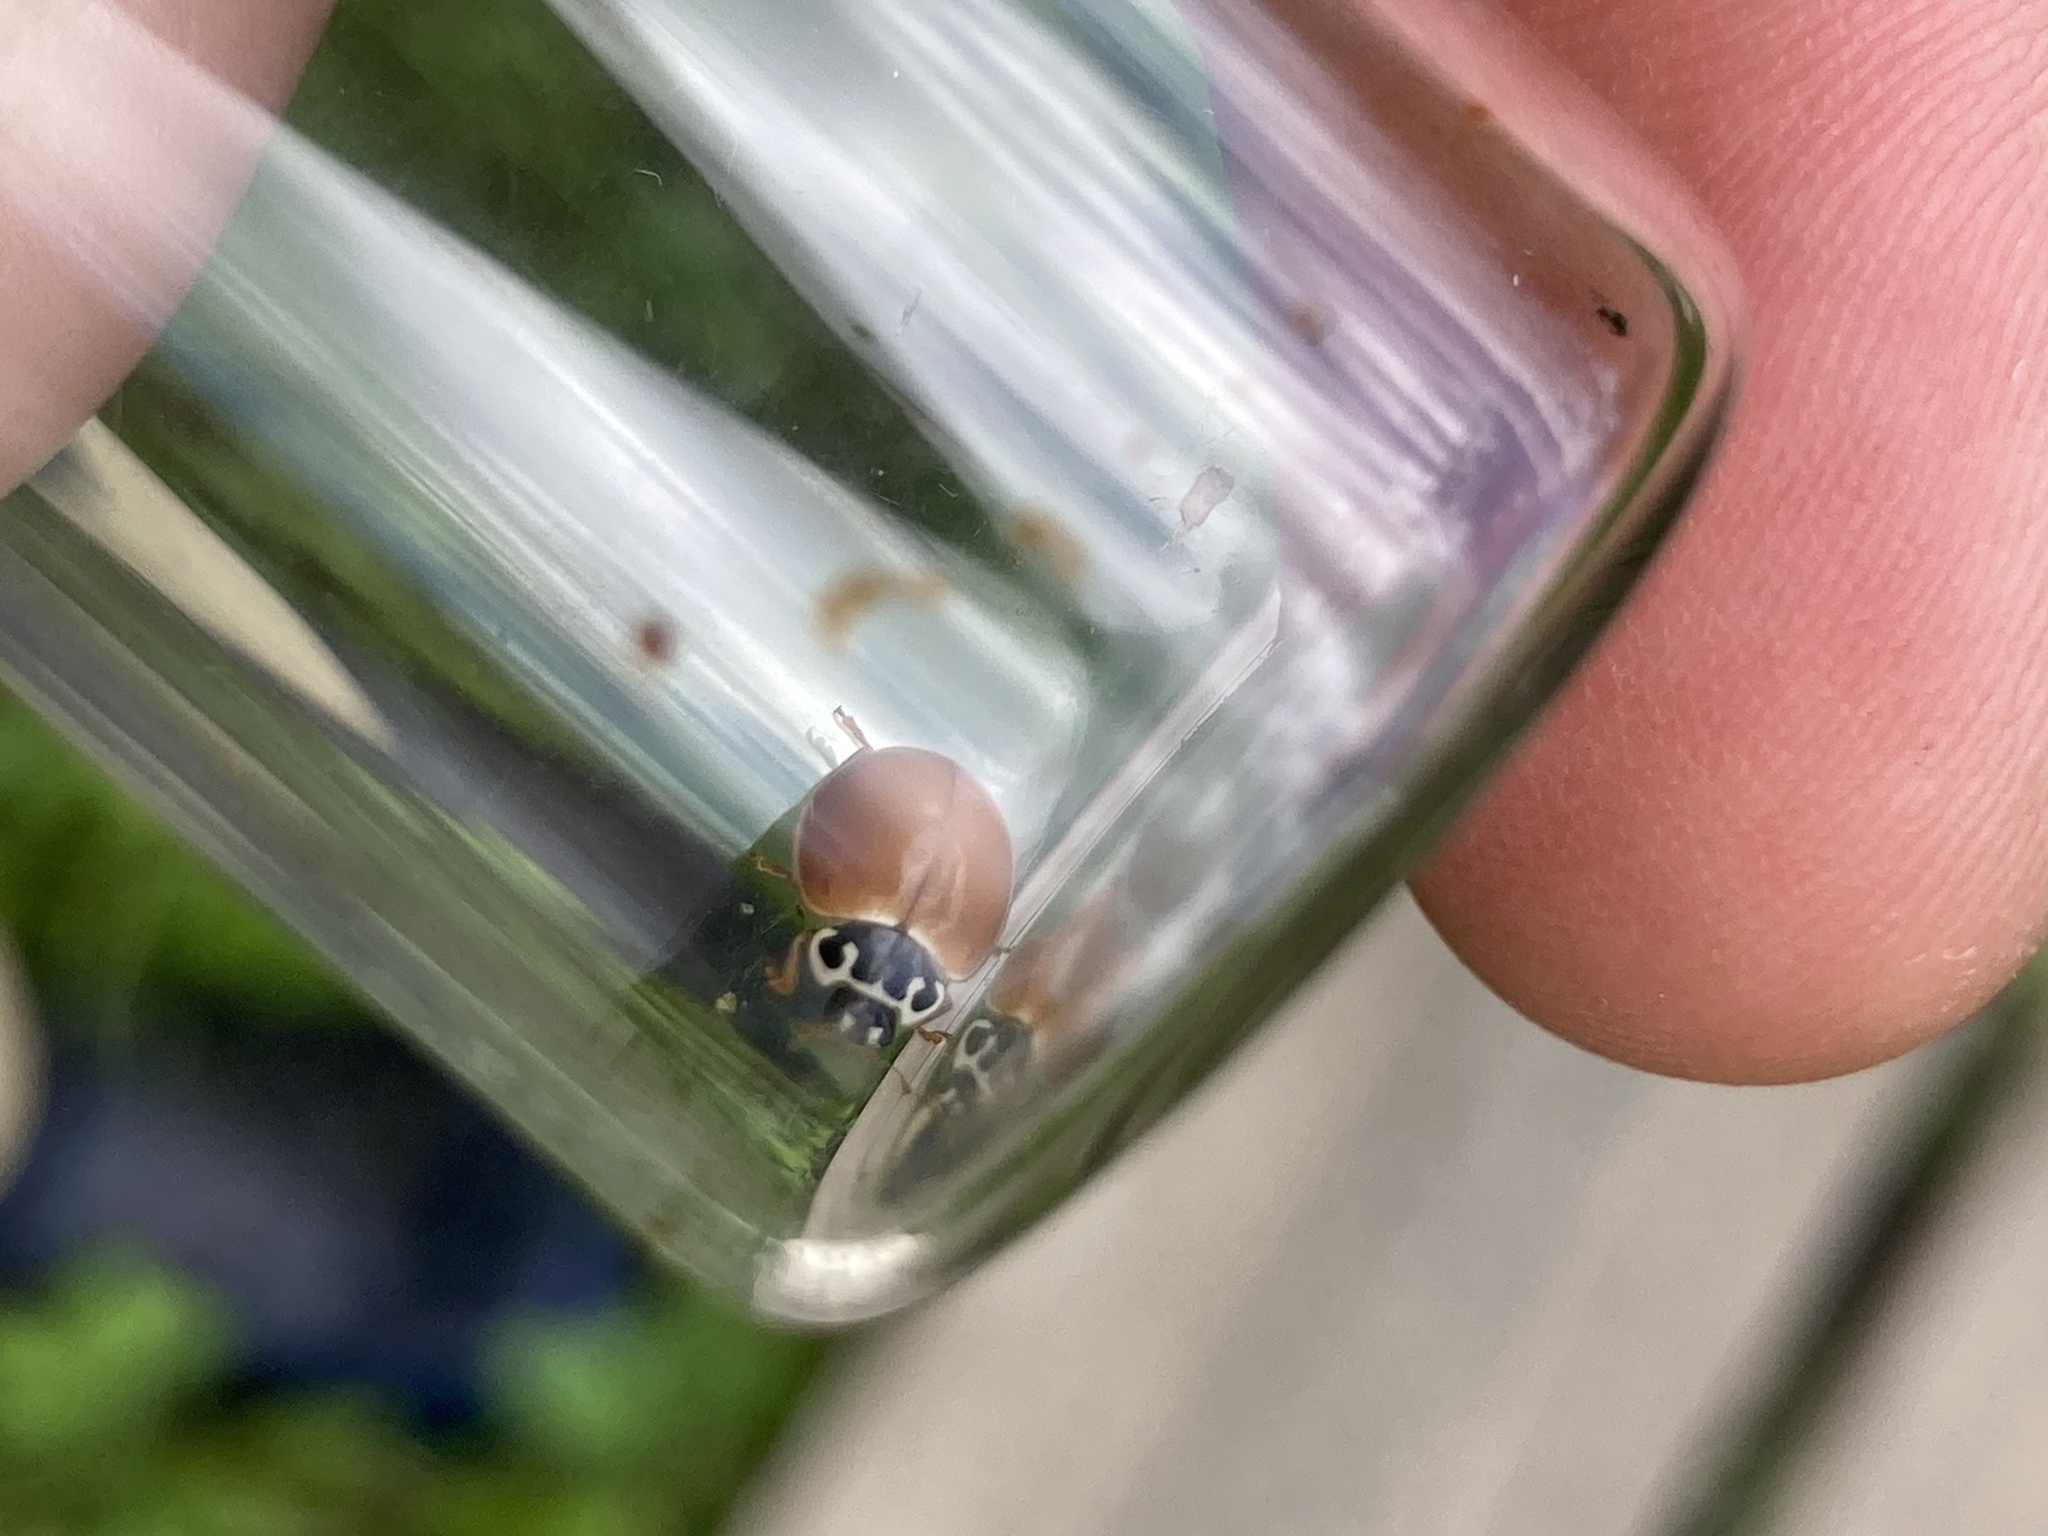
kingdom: Animalia
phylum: Arthropoda
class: Insecta
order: Coleoptera
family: Coccinellidae
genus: Cycloneda
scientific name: Cycloneda munda
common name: Polished lady beetle
